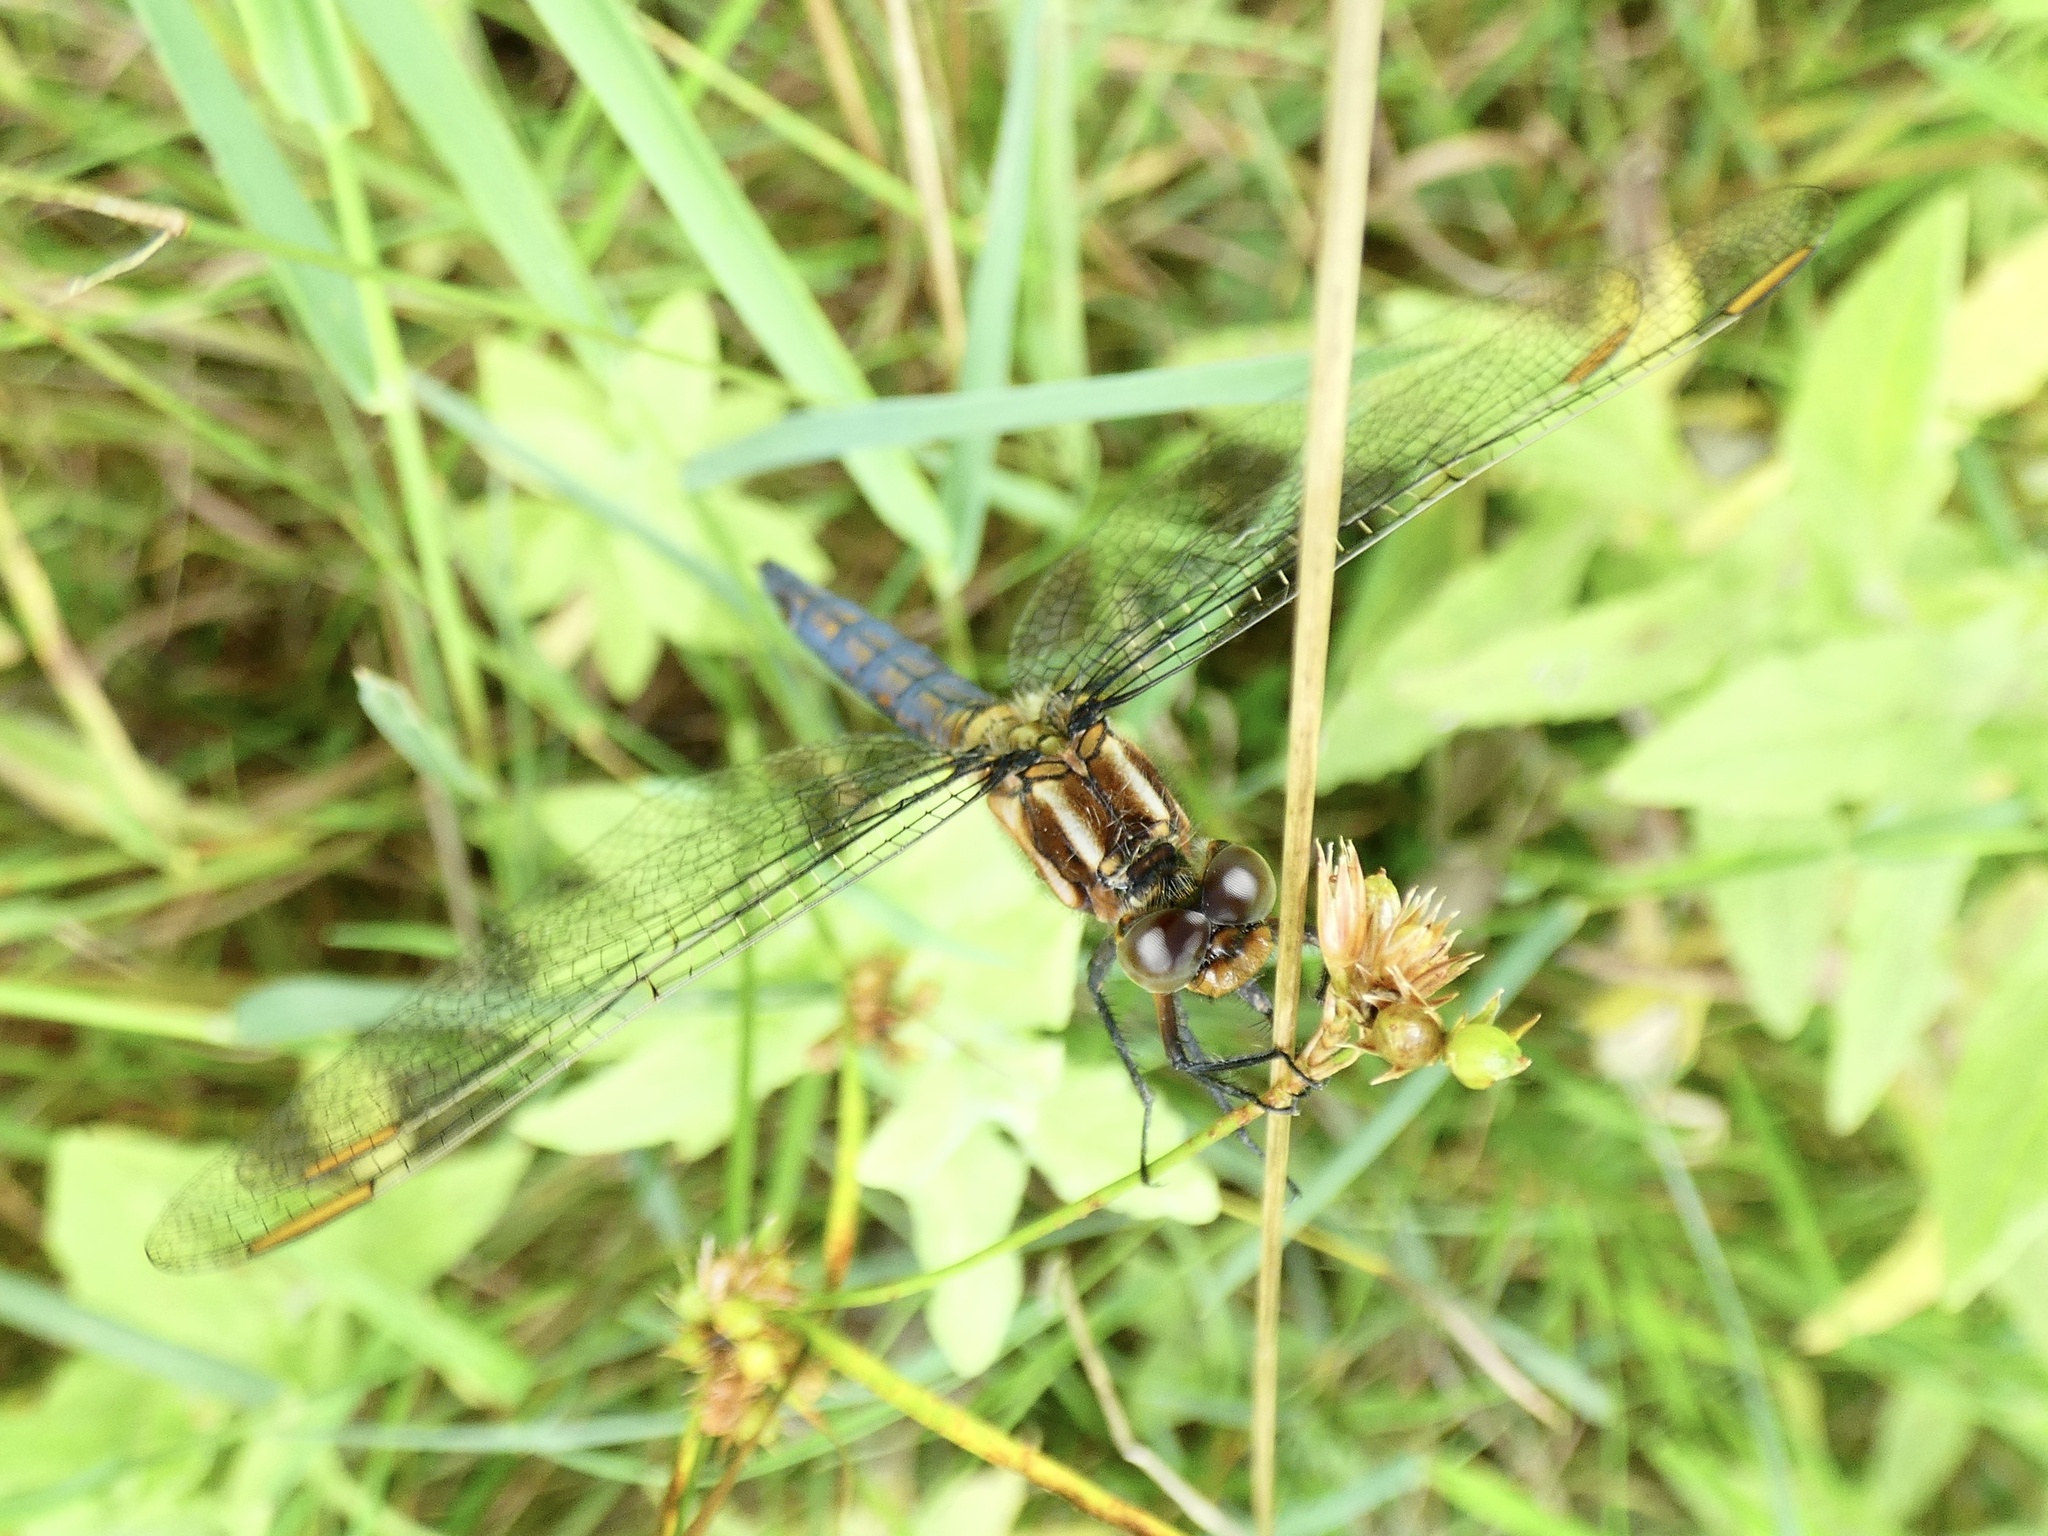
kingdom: Animalia
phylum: Arthropoda
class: Insecta
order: Odonata
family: Libellulidae
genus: Orthetrum
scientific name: Orthetrum coerulescens
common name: Keeled skimmer
